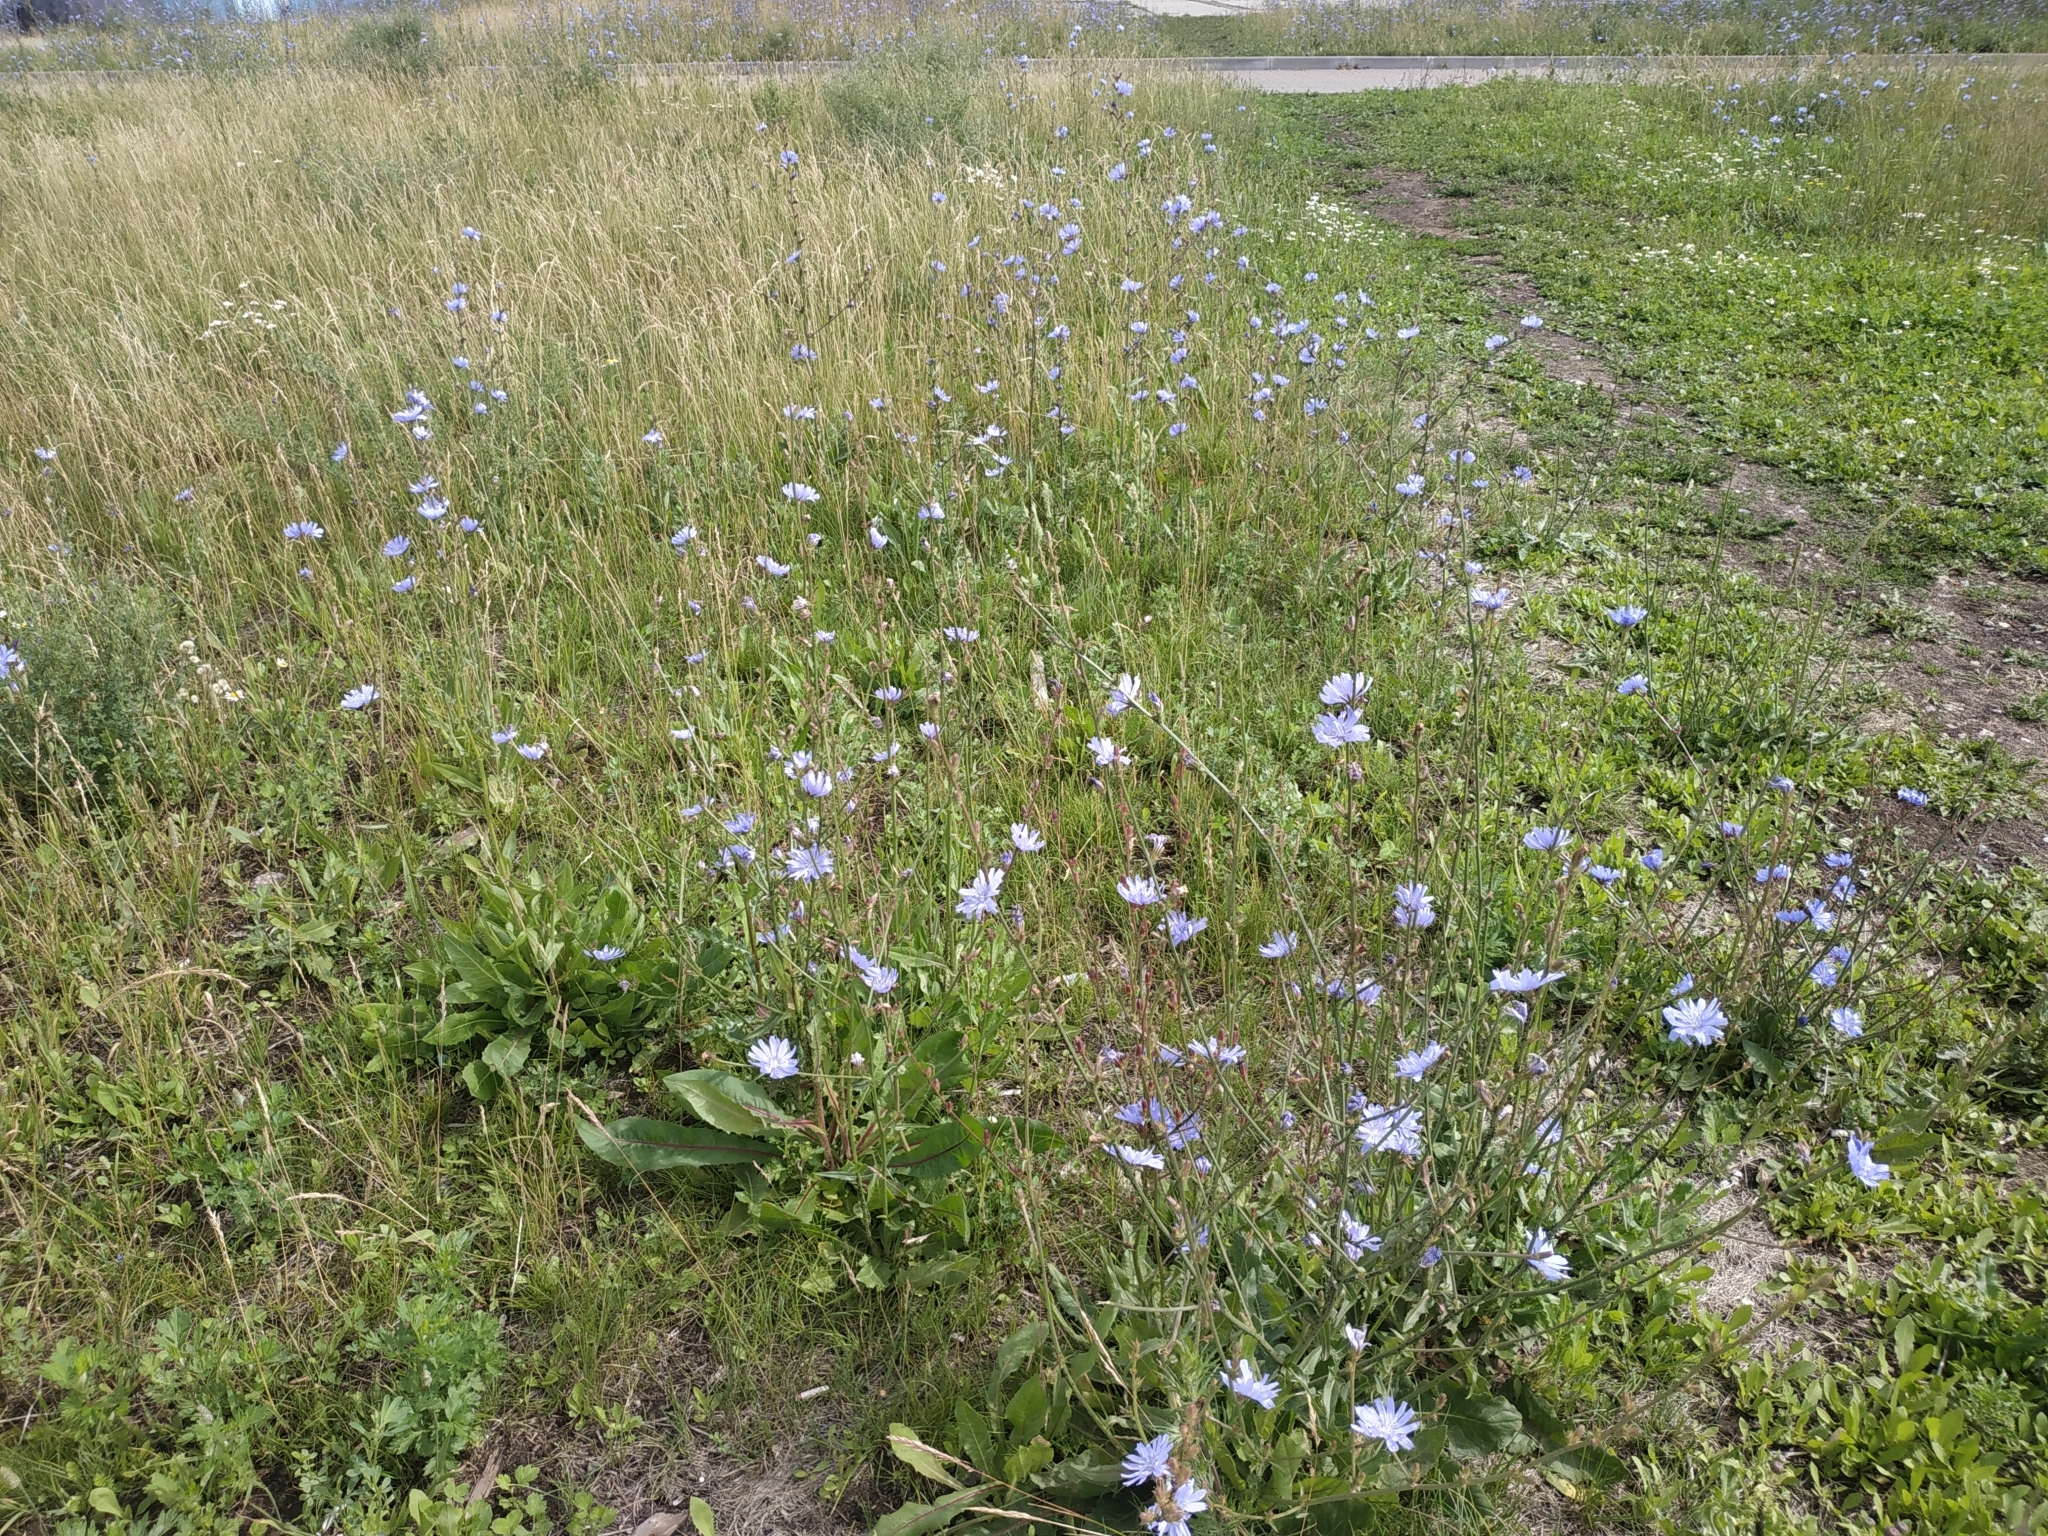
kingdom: Plantae
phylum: Tracheophyta
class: Magnoliopsida
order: Asterales
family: Asteraceae
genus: Cichorium
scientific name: Cichorium intybus
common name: Chicory
